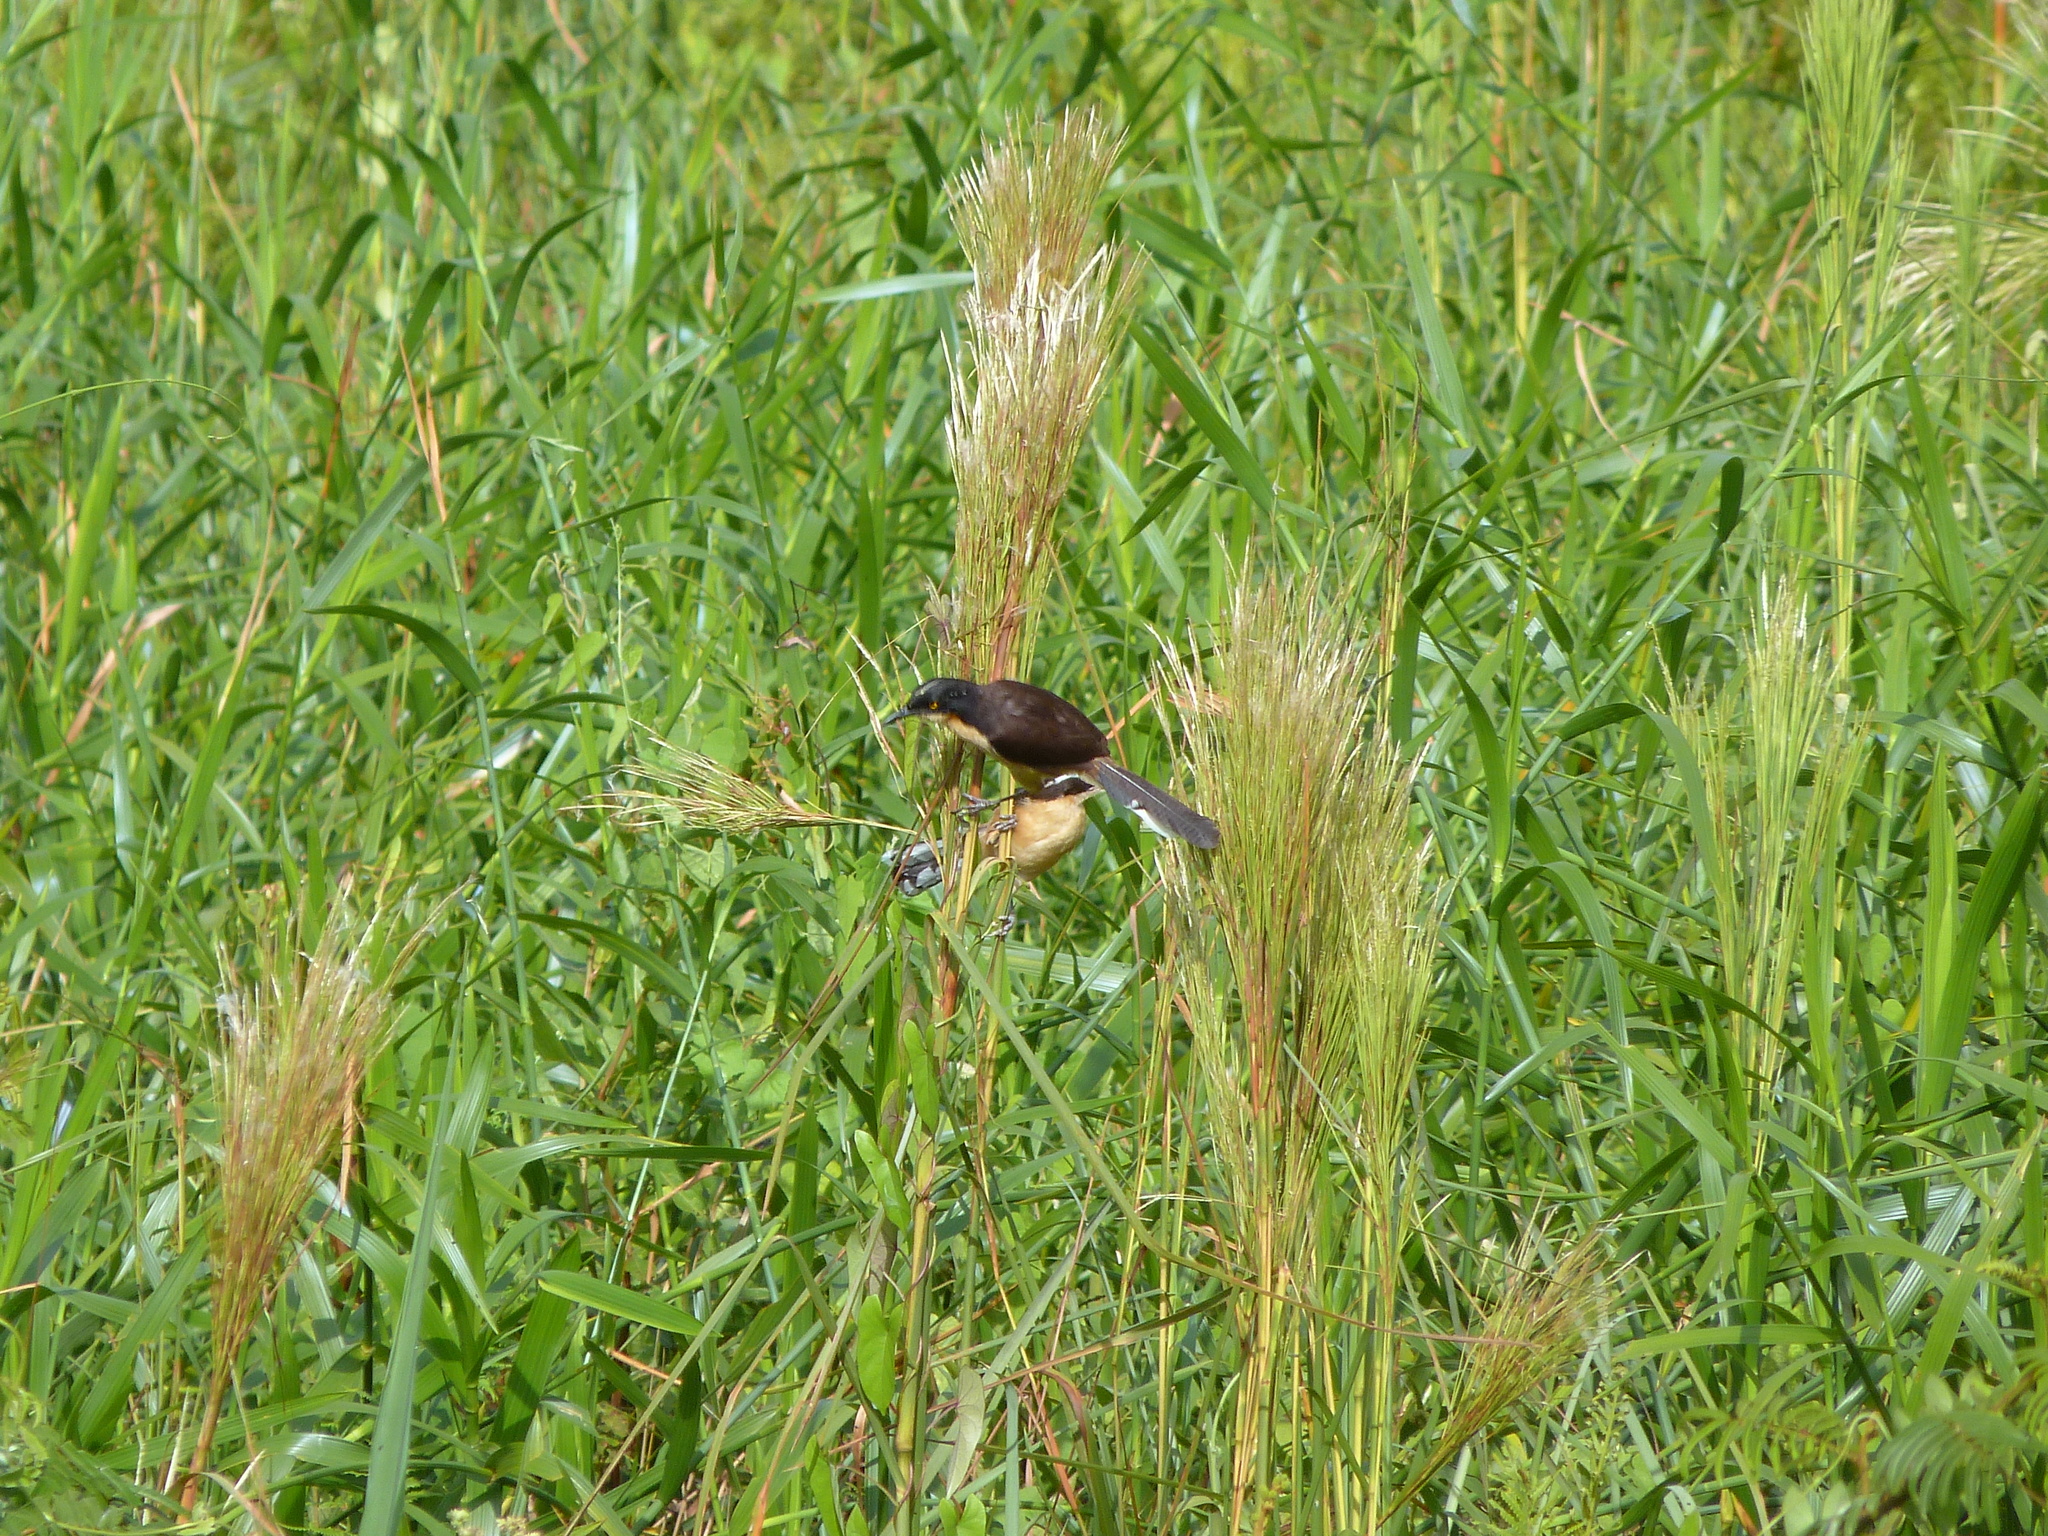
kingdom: Animalia
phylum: Chordata
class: Aves
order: Passeriformes
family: Donacobiidae
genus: Donacobius
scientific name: Donacobius atricapilla
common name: Black-capped donacobius
